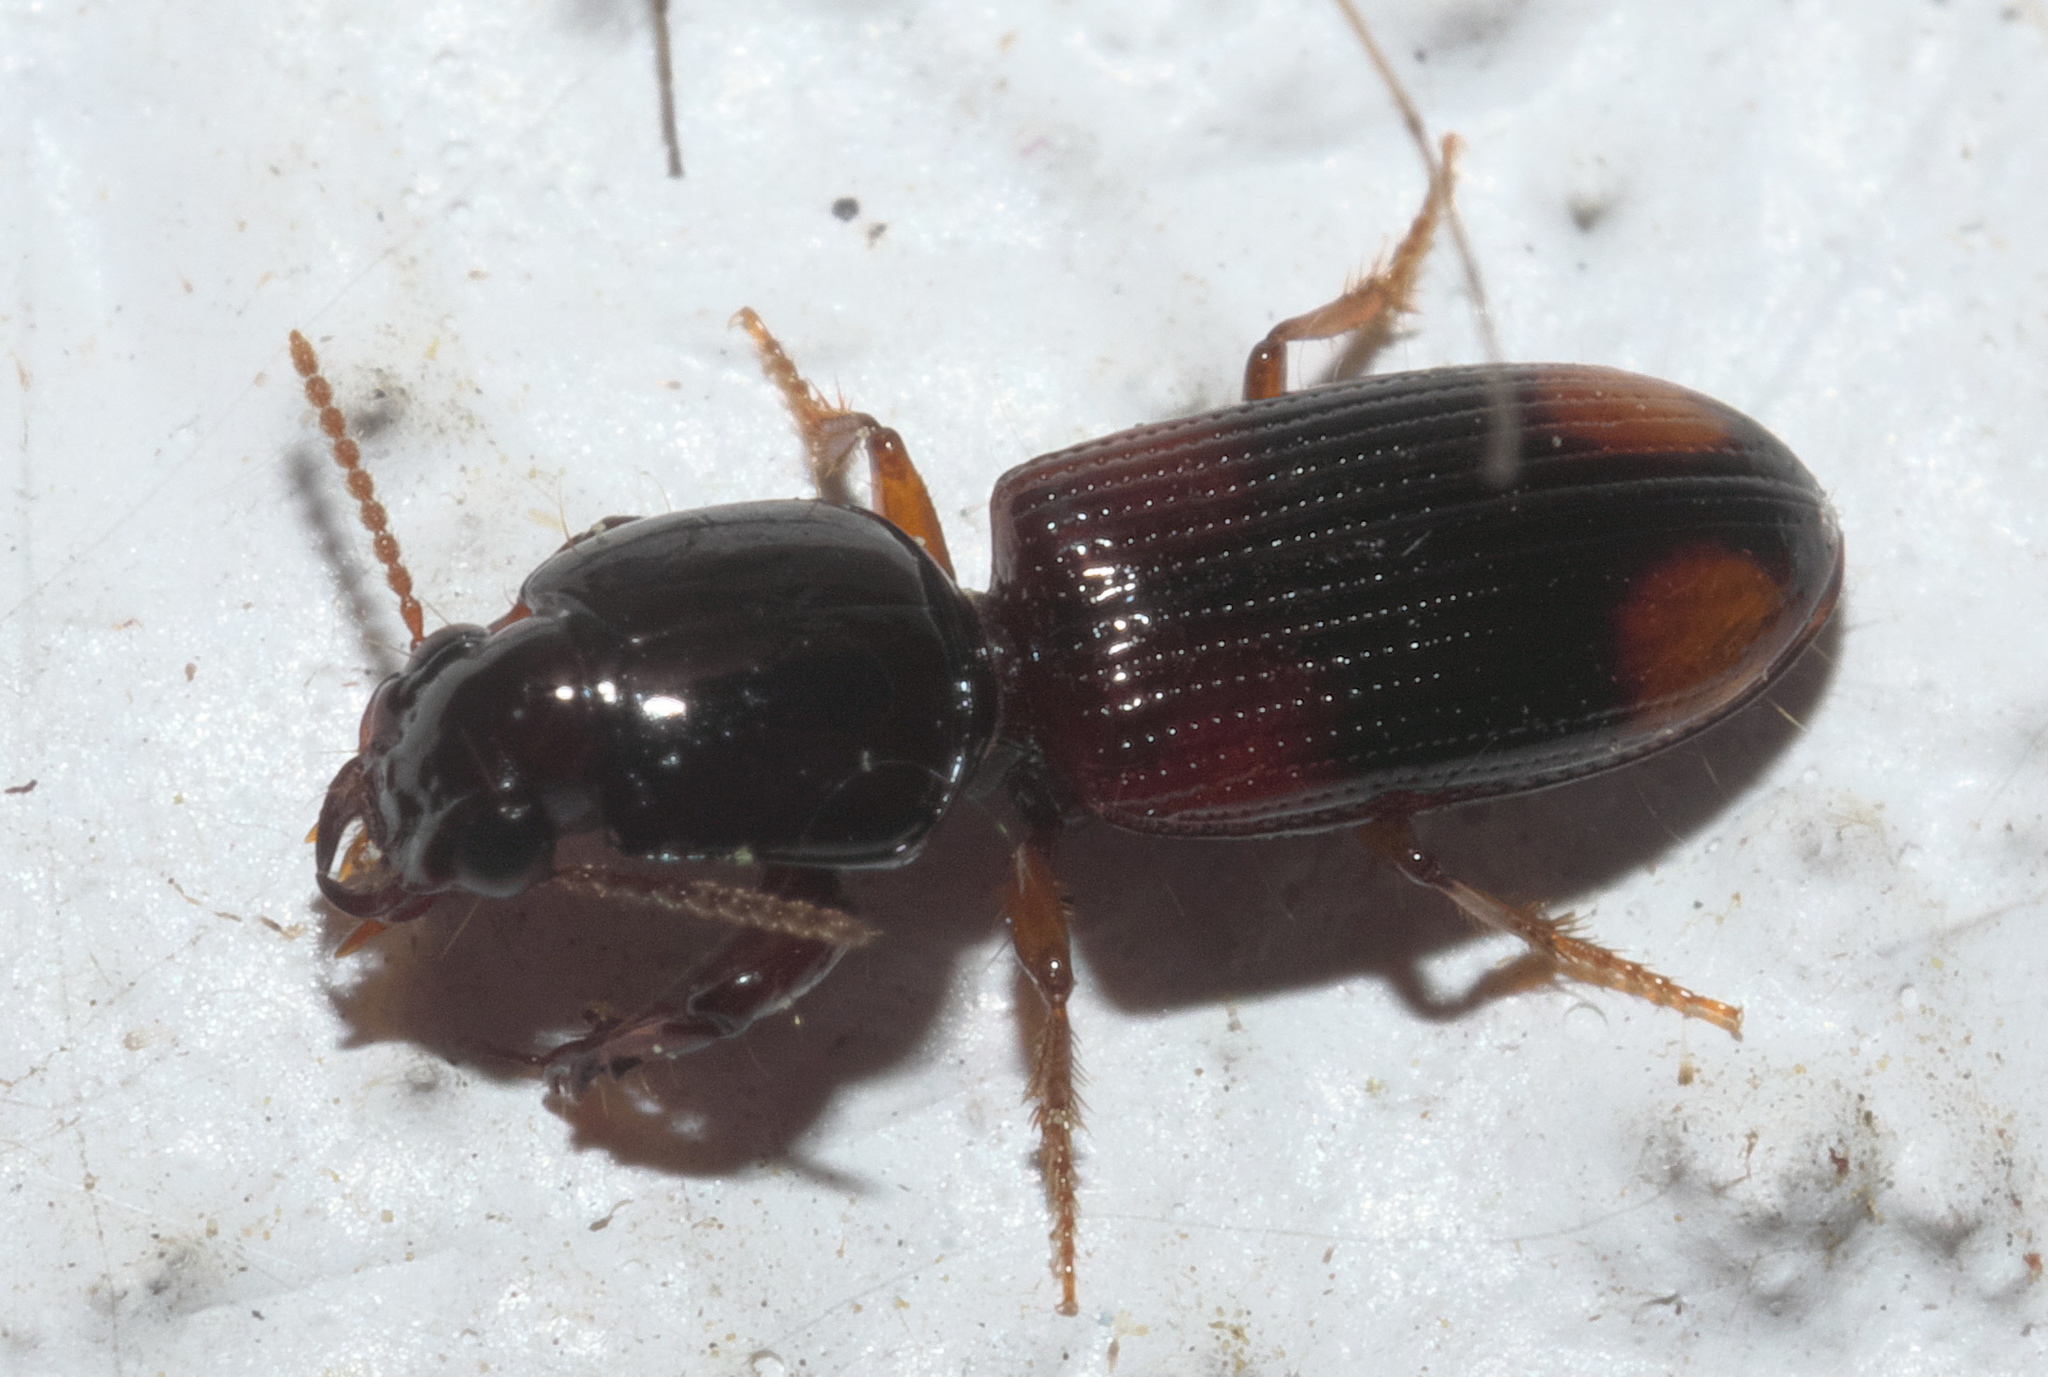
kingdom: Animalia
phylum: Arthropoda
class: Insecta
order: Coleoptera
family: Carabidae
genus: Clivina
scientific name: Clivina bipustulata
